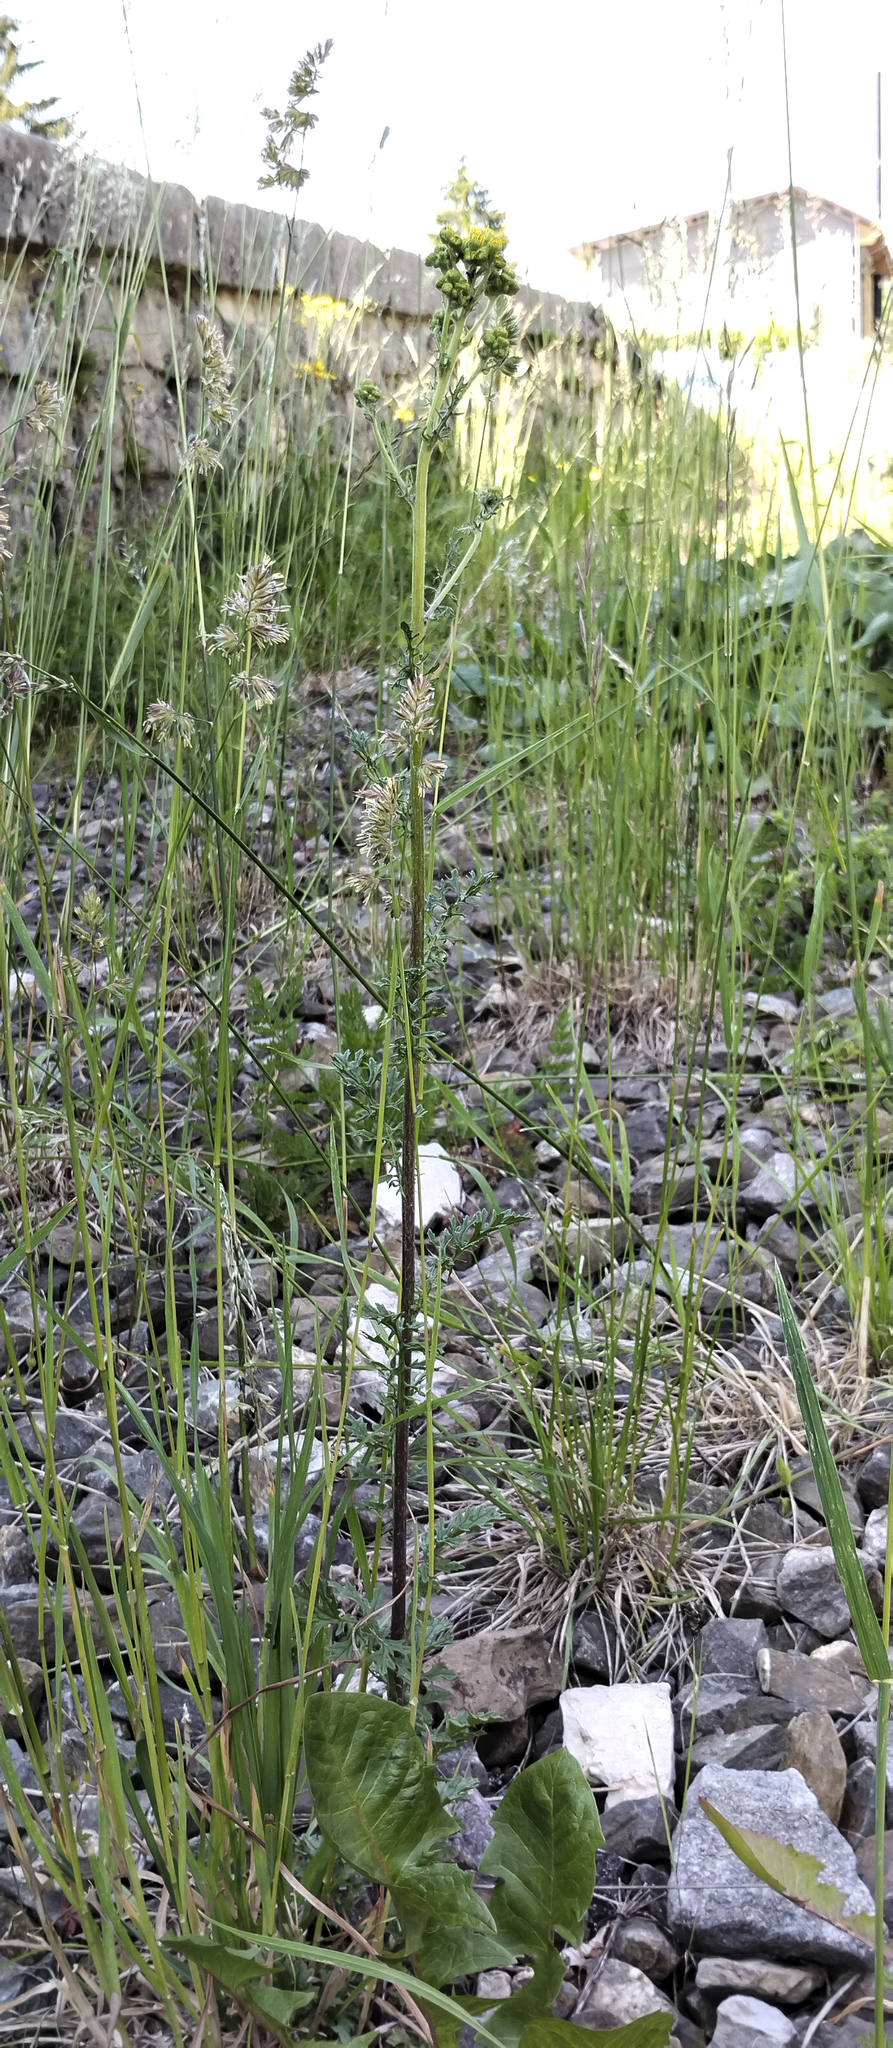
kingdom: Plantae
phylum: Tracheophyta
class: Magnoliopsida
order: Asterales
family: Asteraceae
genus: Jacobaea
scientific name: Jacobaea vulgaris
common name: Stinking willie
